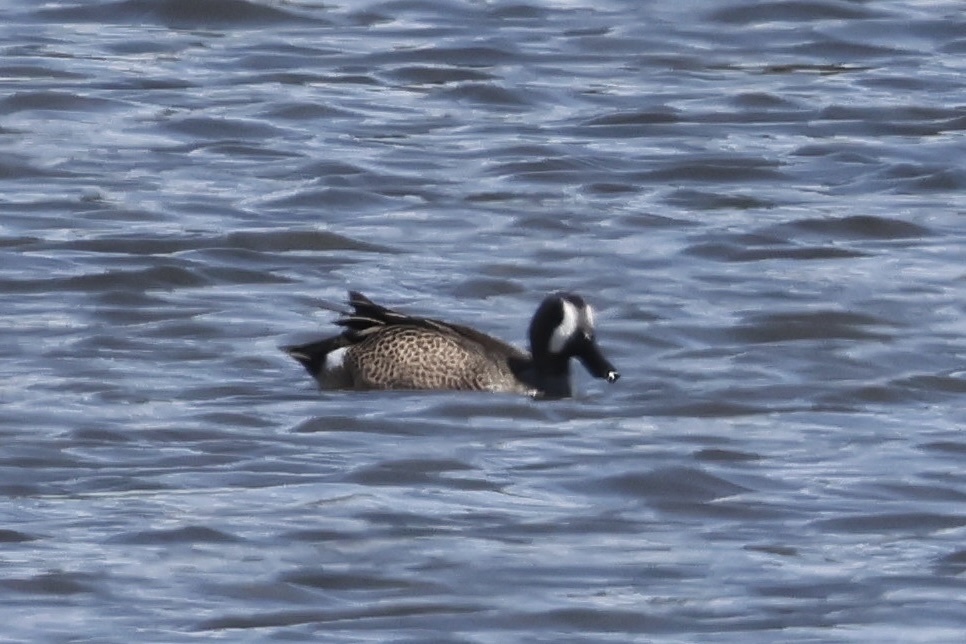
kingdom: Animalia
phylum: Chordata
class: Aves
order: Anseriformes
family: Anatidae
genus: Spatula
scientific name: Spatula discors
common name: Blue-winged teal
